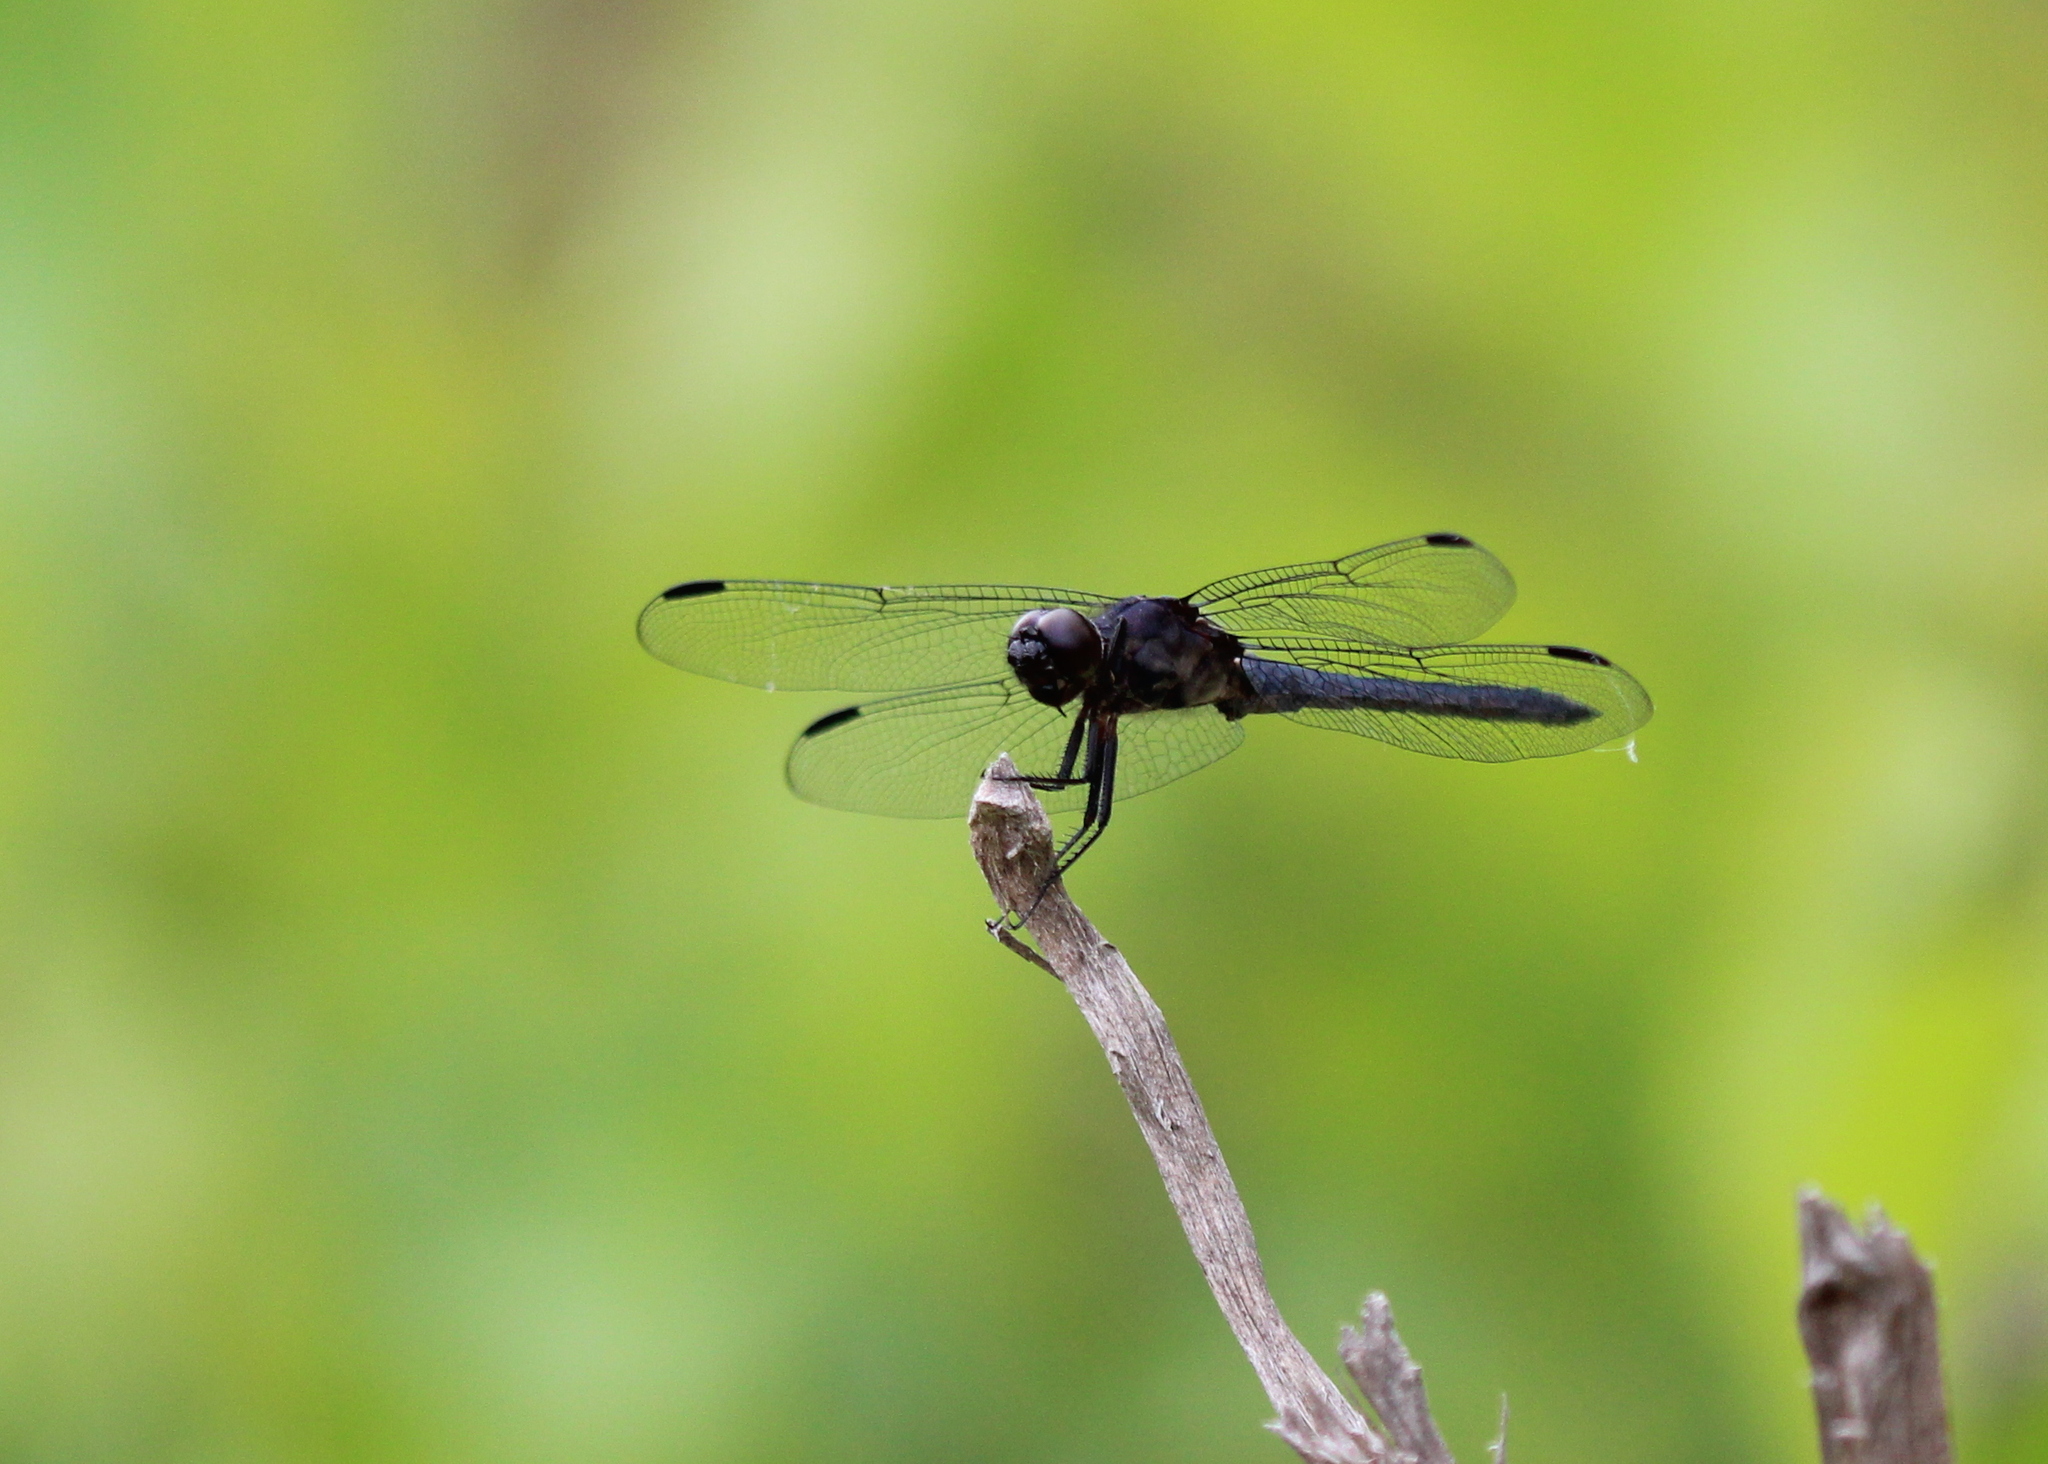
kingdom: Animalia
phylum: Arthropoda
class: Insecta
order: Odonata
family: Libellulidae
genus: Libellula
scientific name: Libellula incesta
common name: Slaty skimmer
